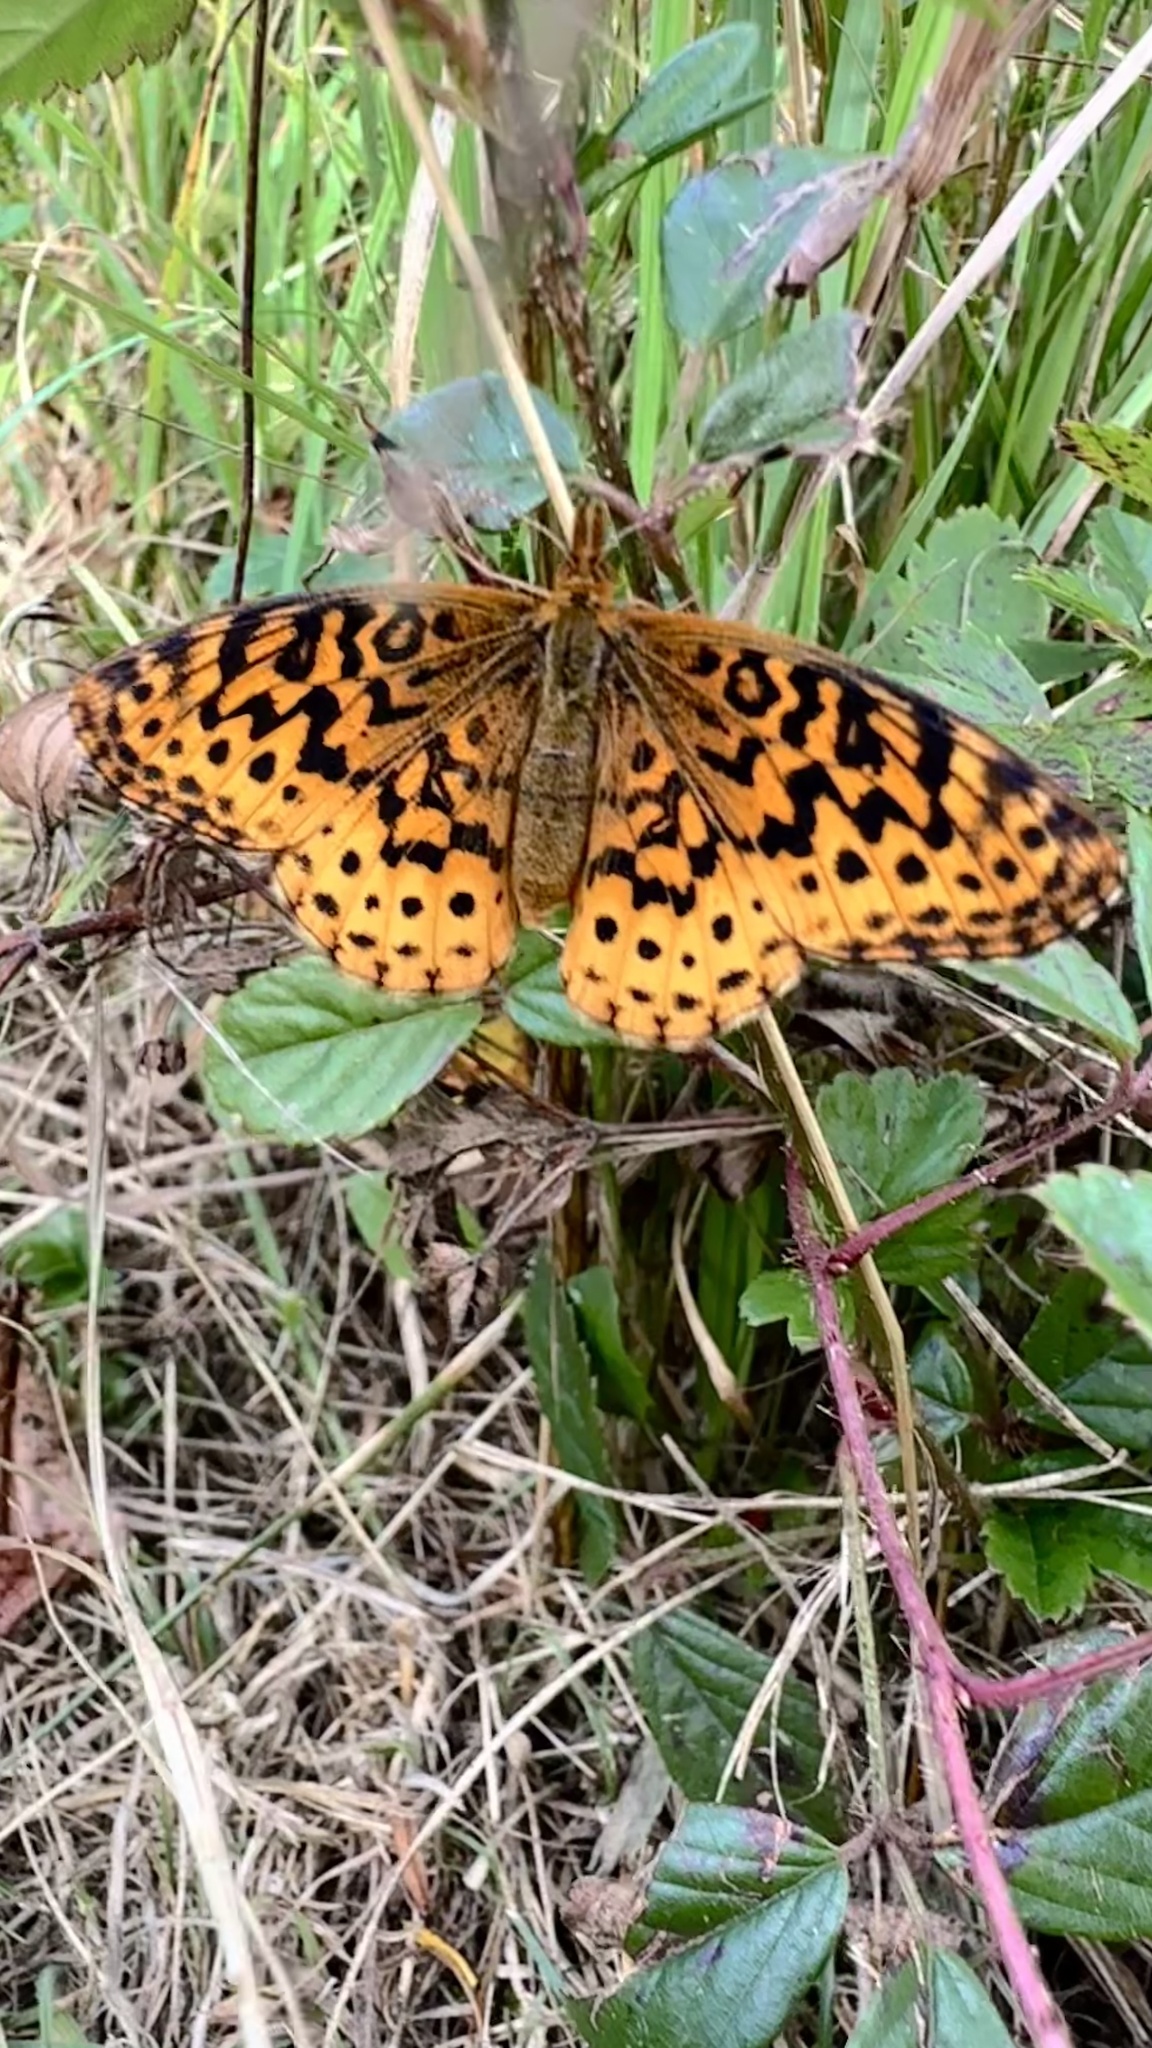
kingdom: Animalia
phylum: Arthropoda
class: Insecta
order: Lepidoptera
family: Nymphalidae
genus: Clossiana
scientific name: Clossiana toddi
